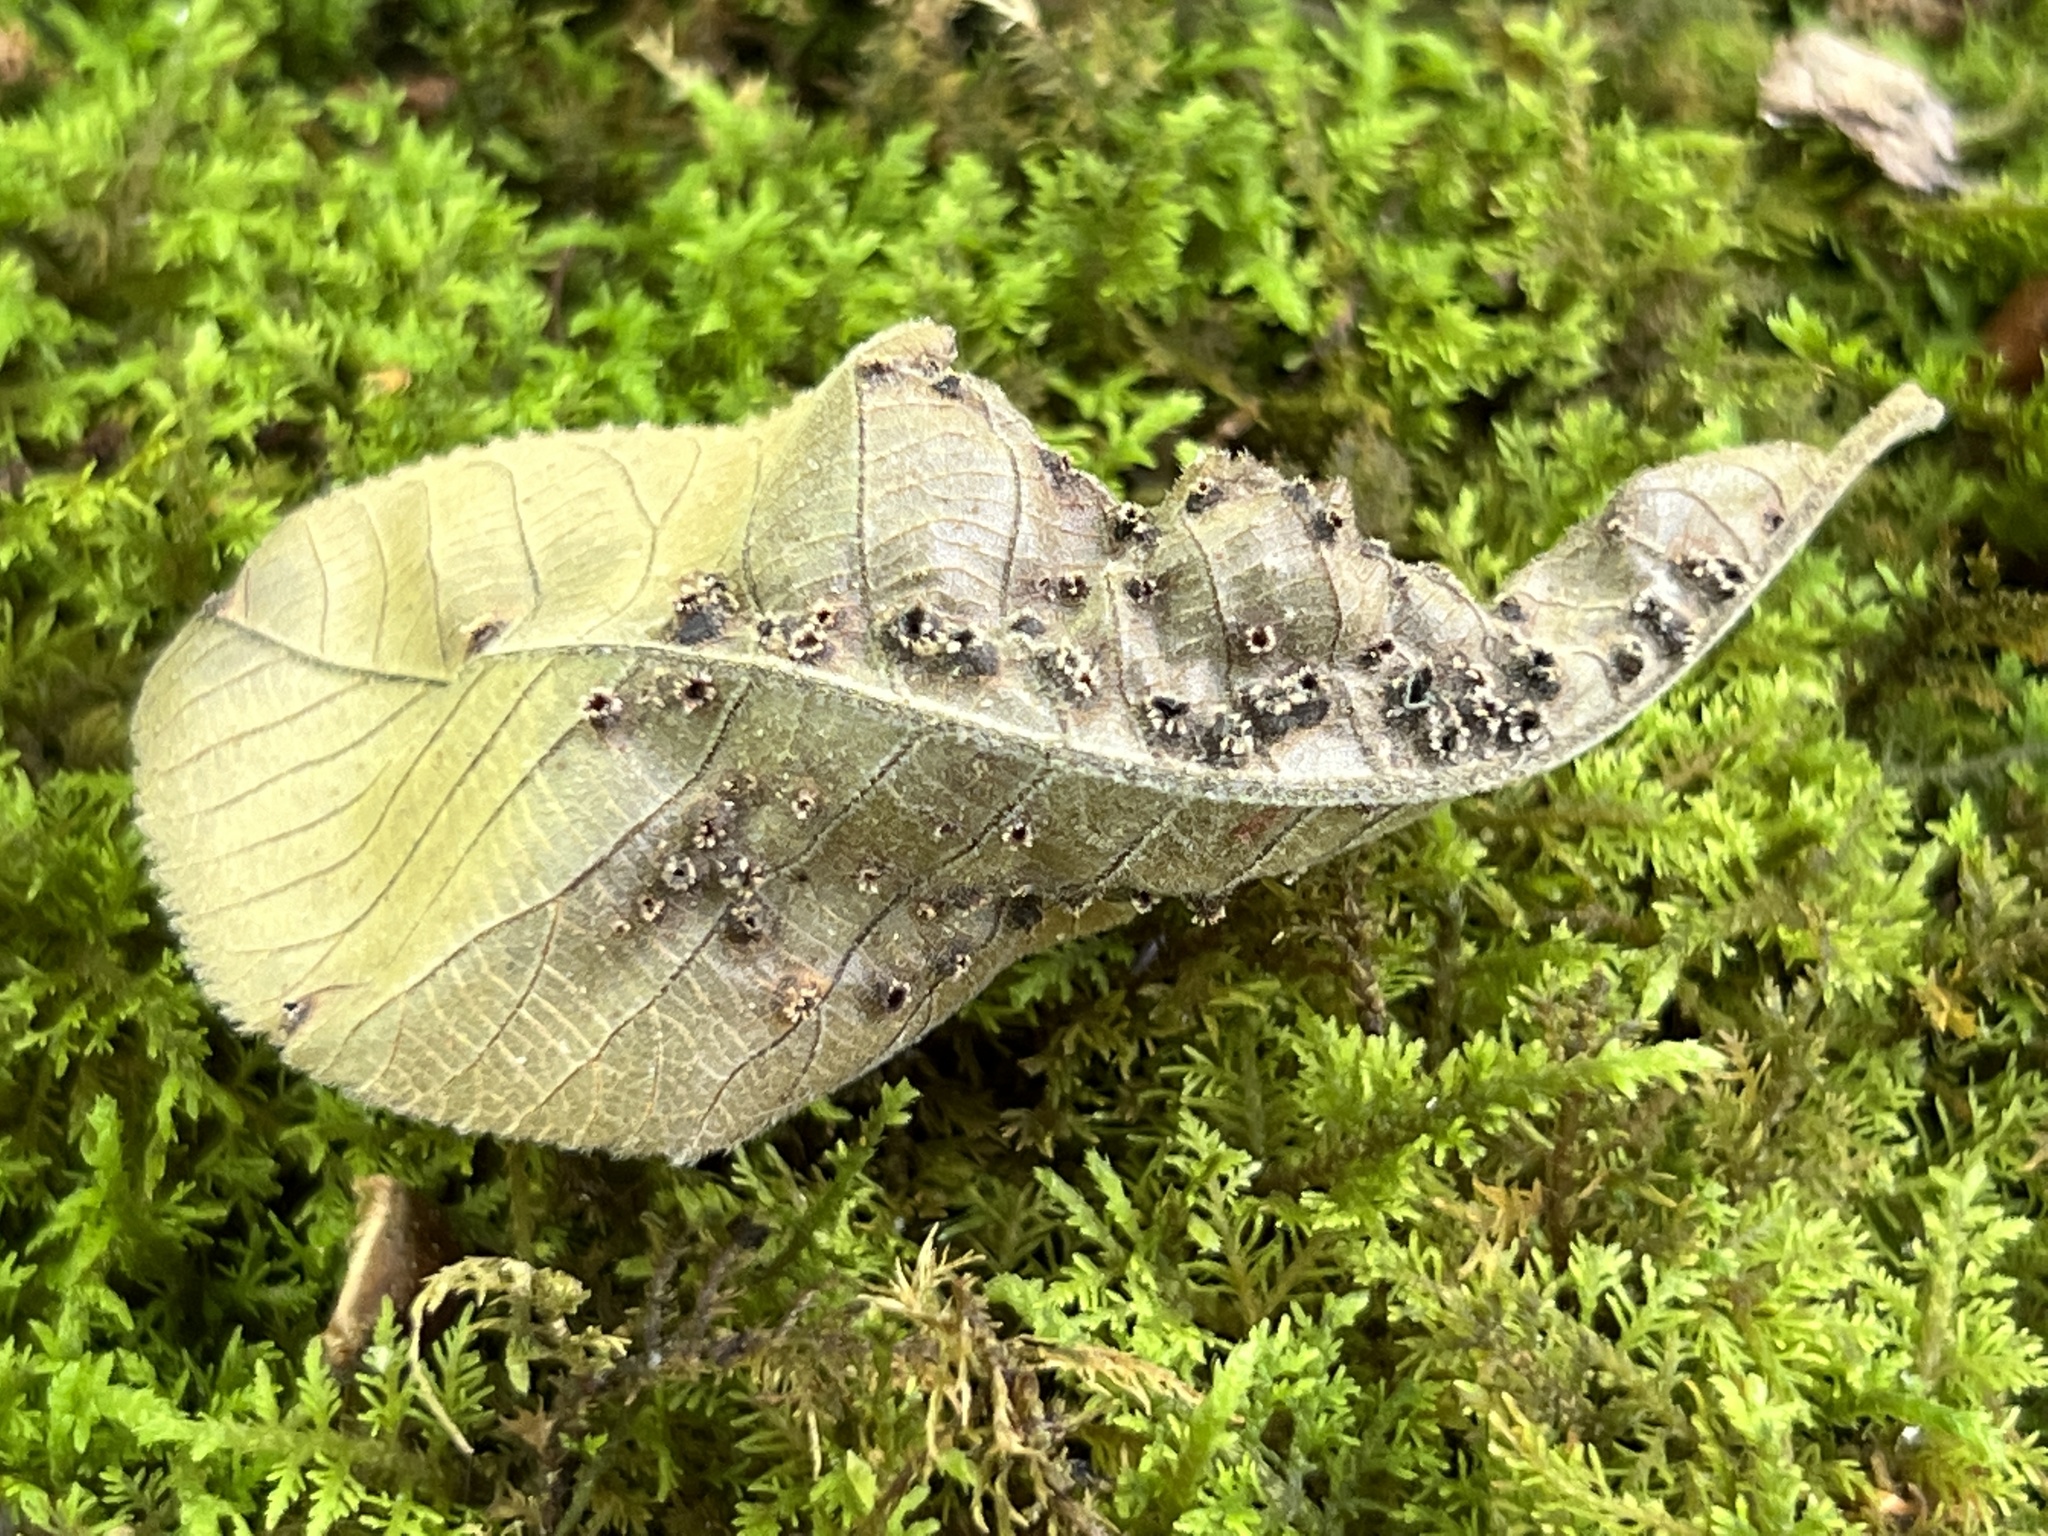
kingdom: Animalia
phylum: Arthropoda
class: Insecta
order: Hemiptera
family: Phylloxeridae
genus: Phylloxera
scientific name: Phylloxera caryae-semen
